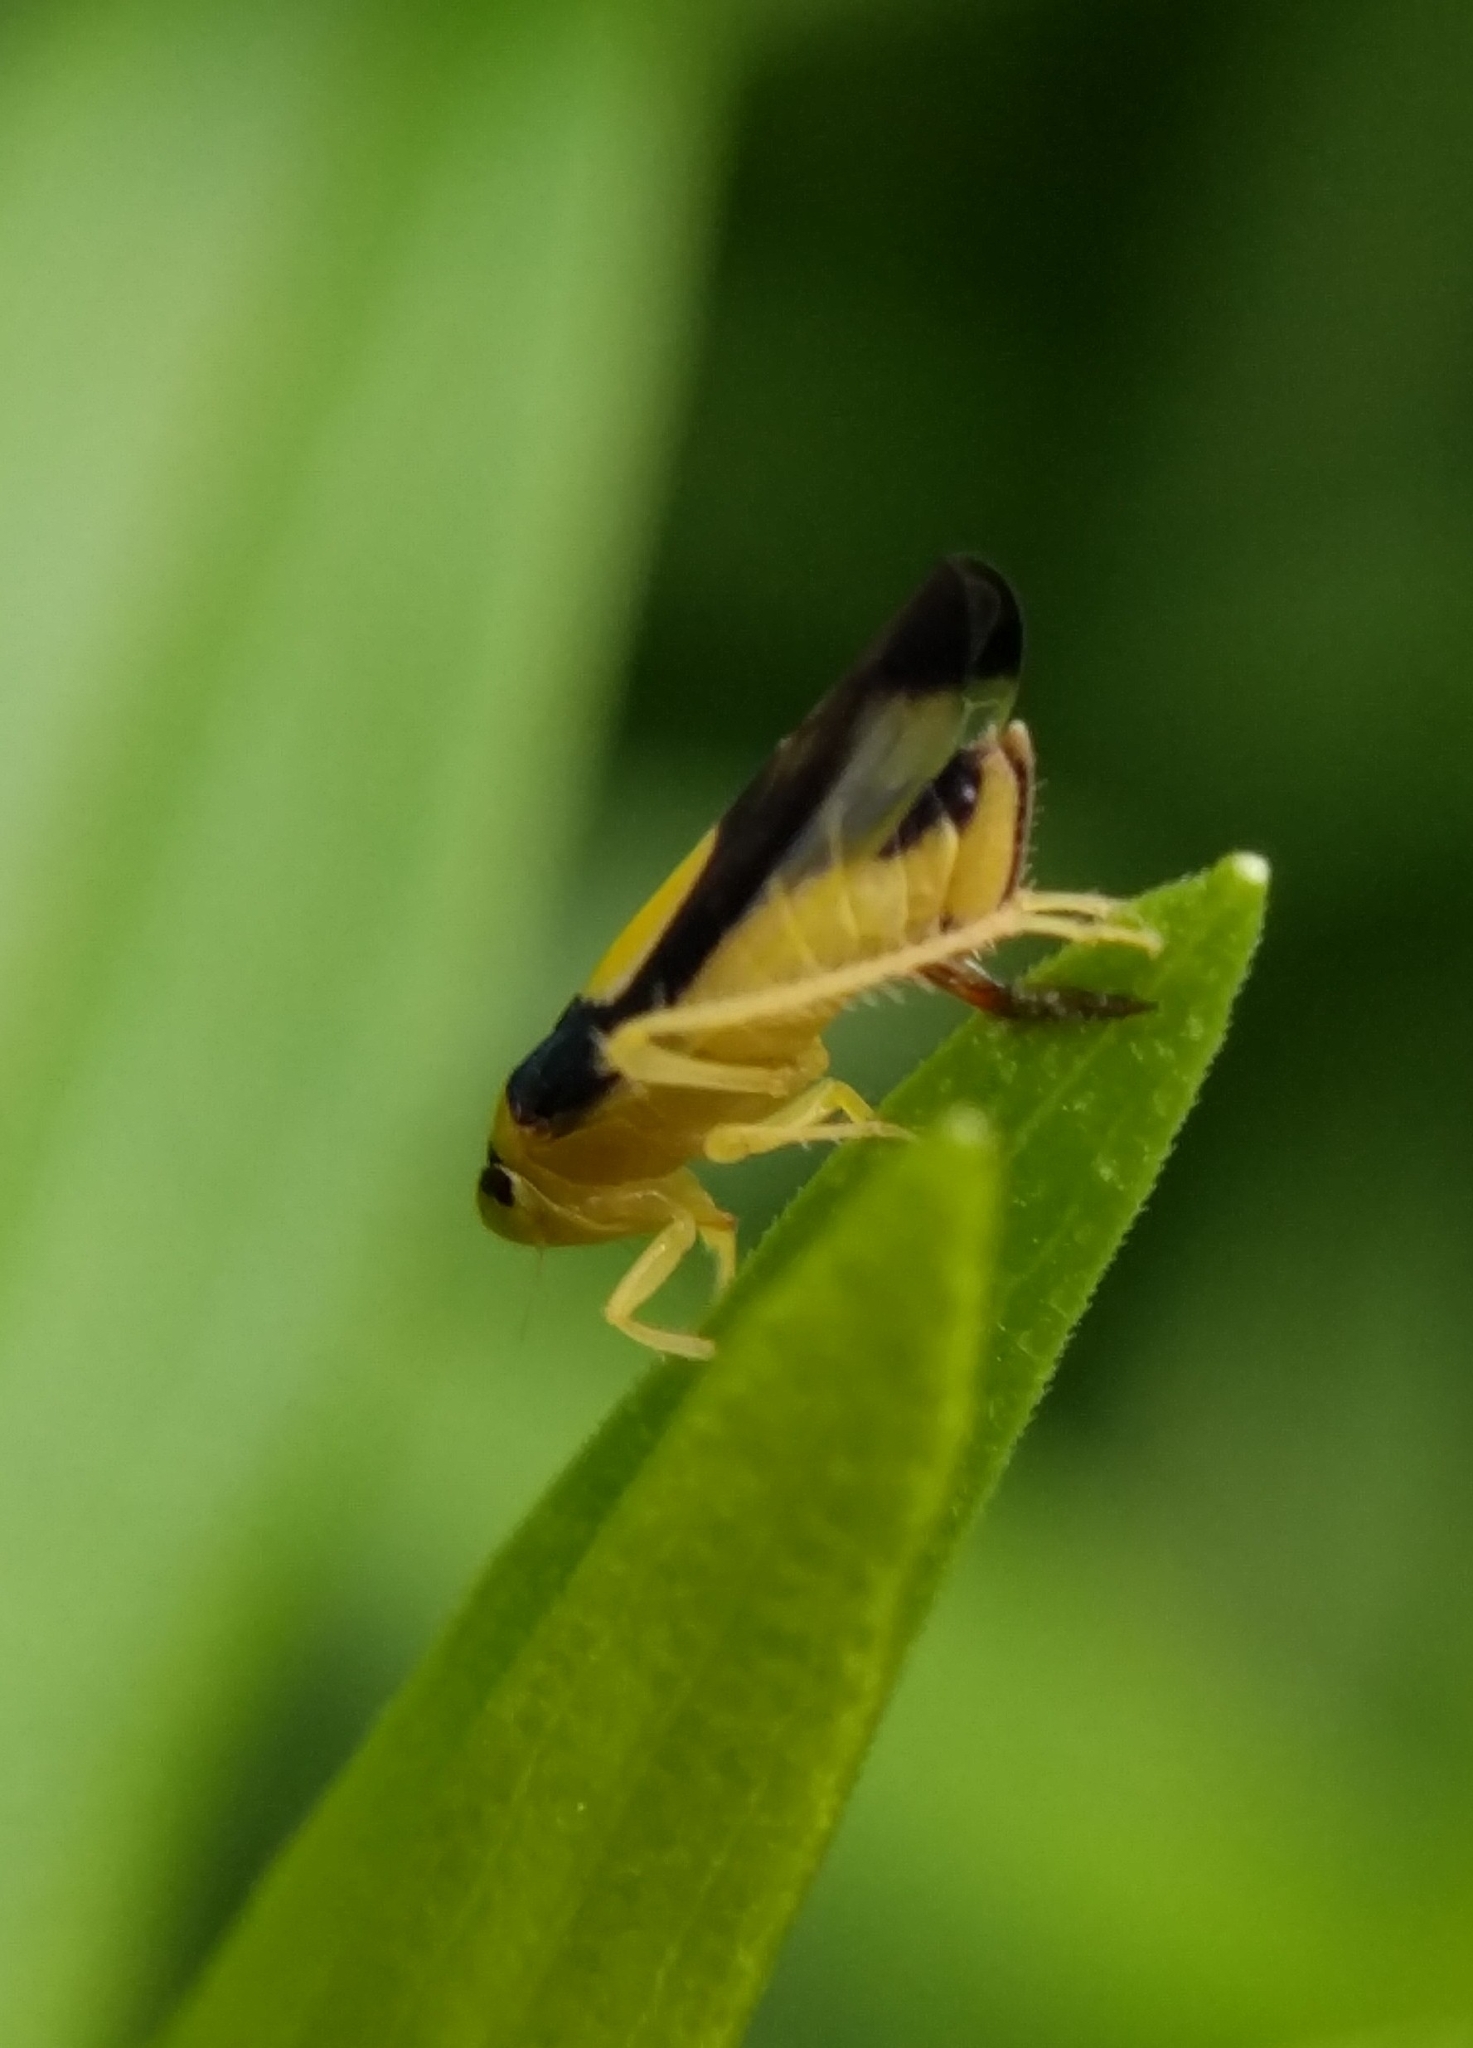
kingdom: Animalia
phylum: Arthropoda
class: Insecta
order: Hemiptera
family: Cicadellidae
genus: Colladonus
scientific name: Colladonus clitellarius
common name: The saddleback leafhopper
